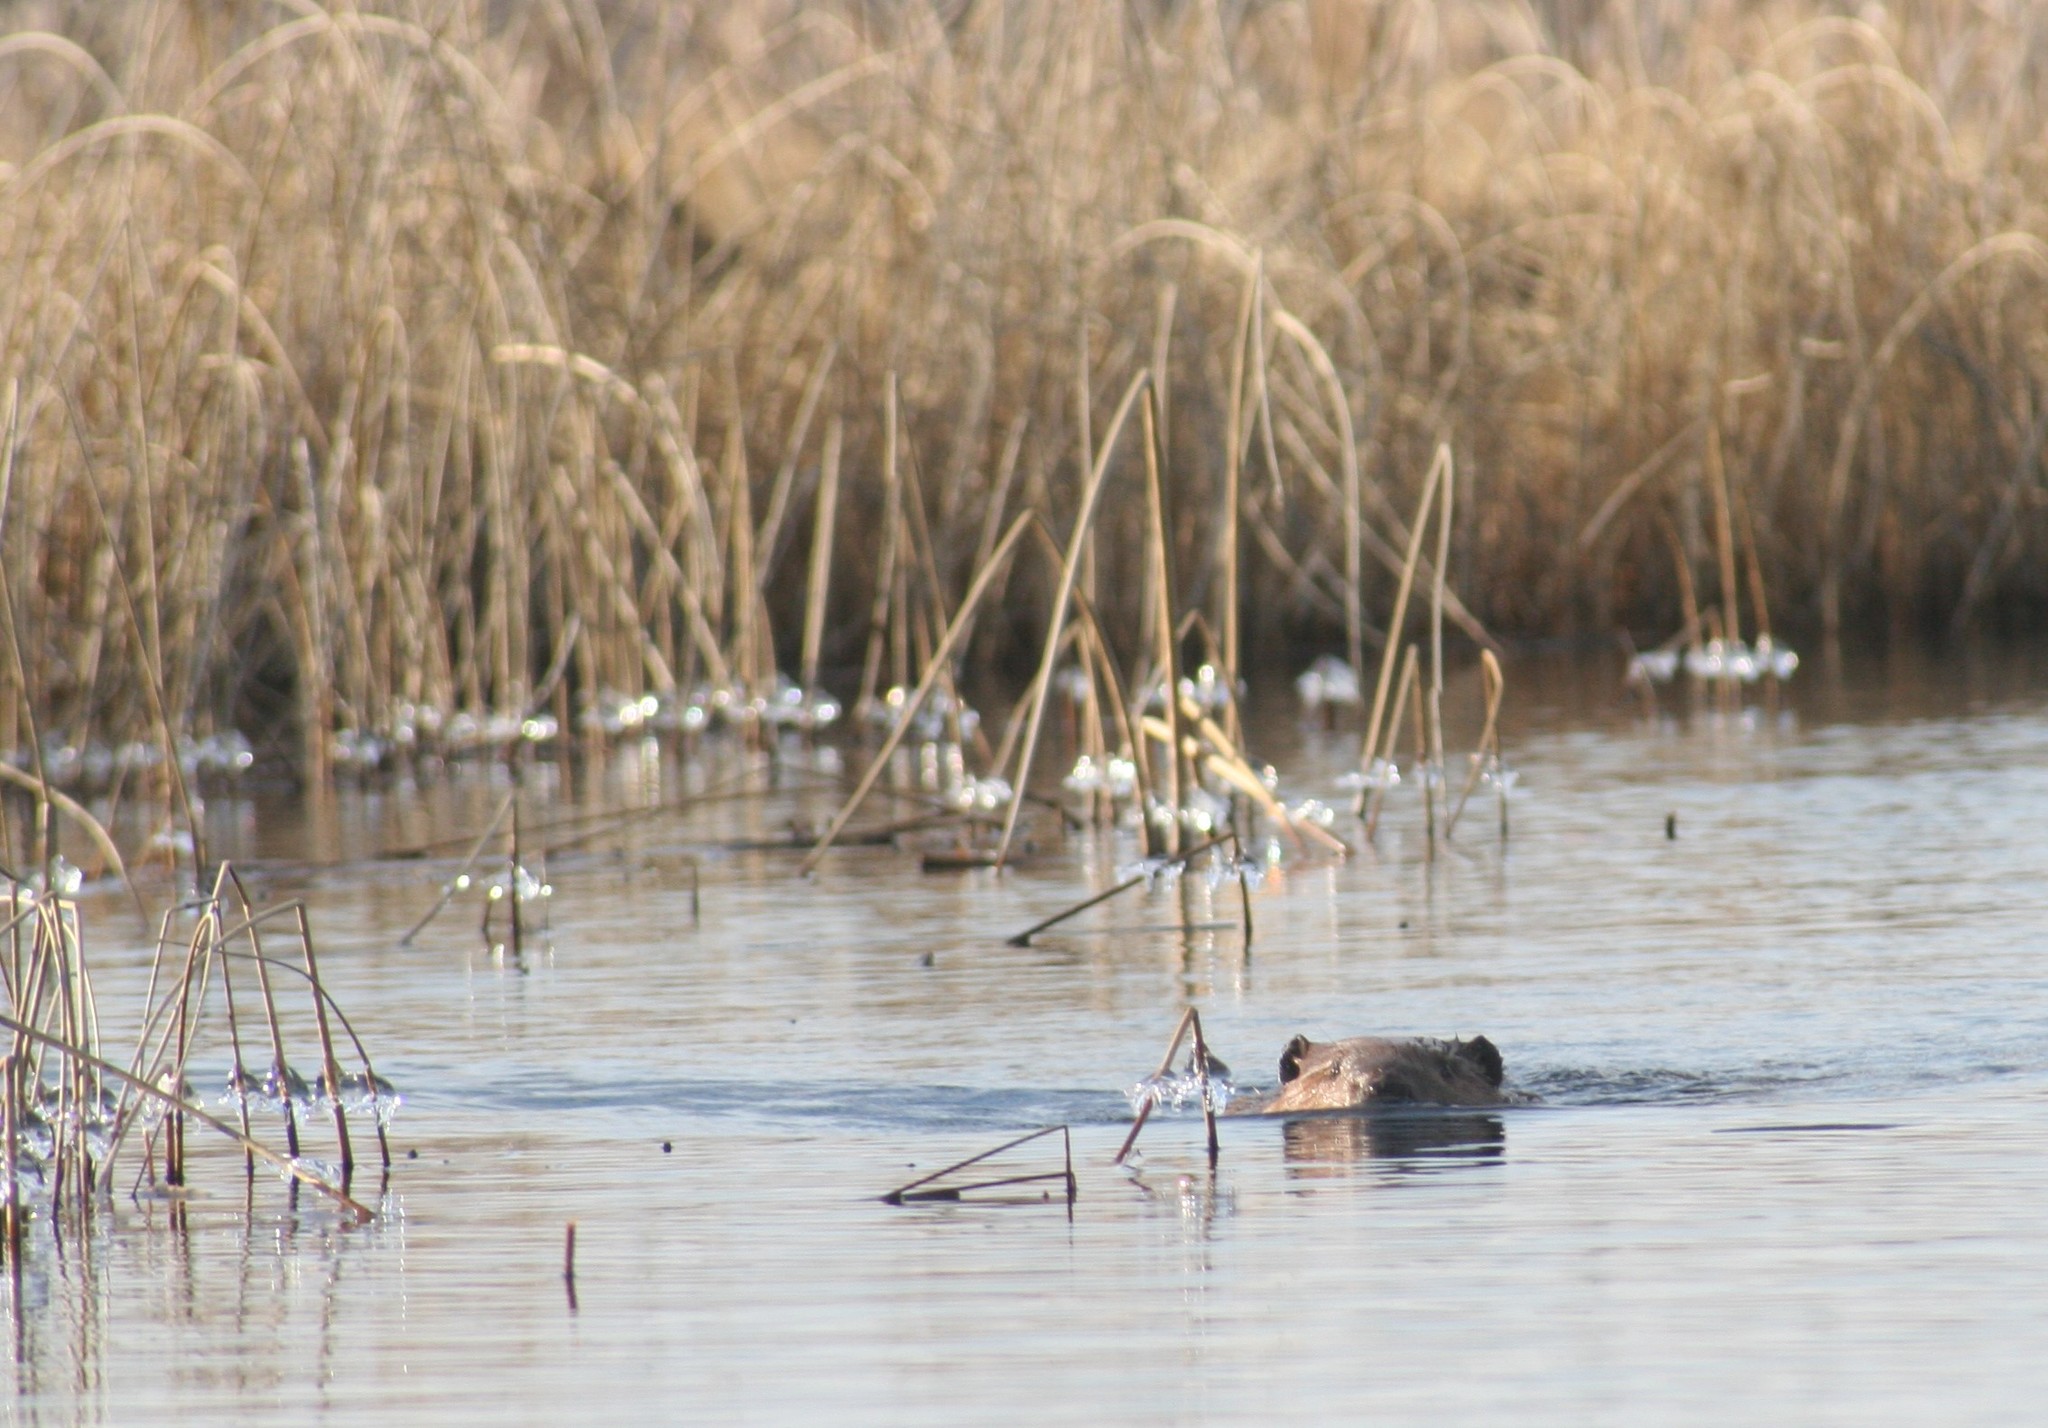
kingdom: Animalia
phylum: Chordata
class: Mammalia
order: Rodentia
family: Castoridae
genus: Castor
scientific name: Castor canadensis
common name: American beaver
